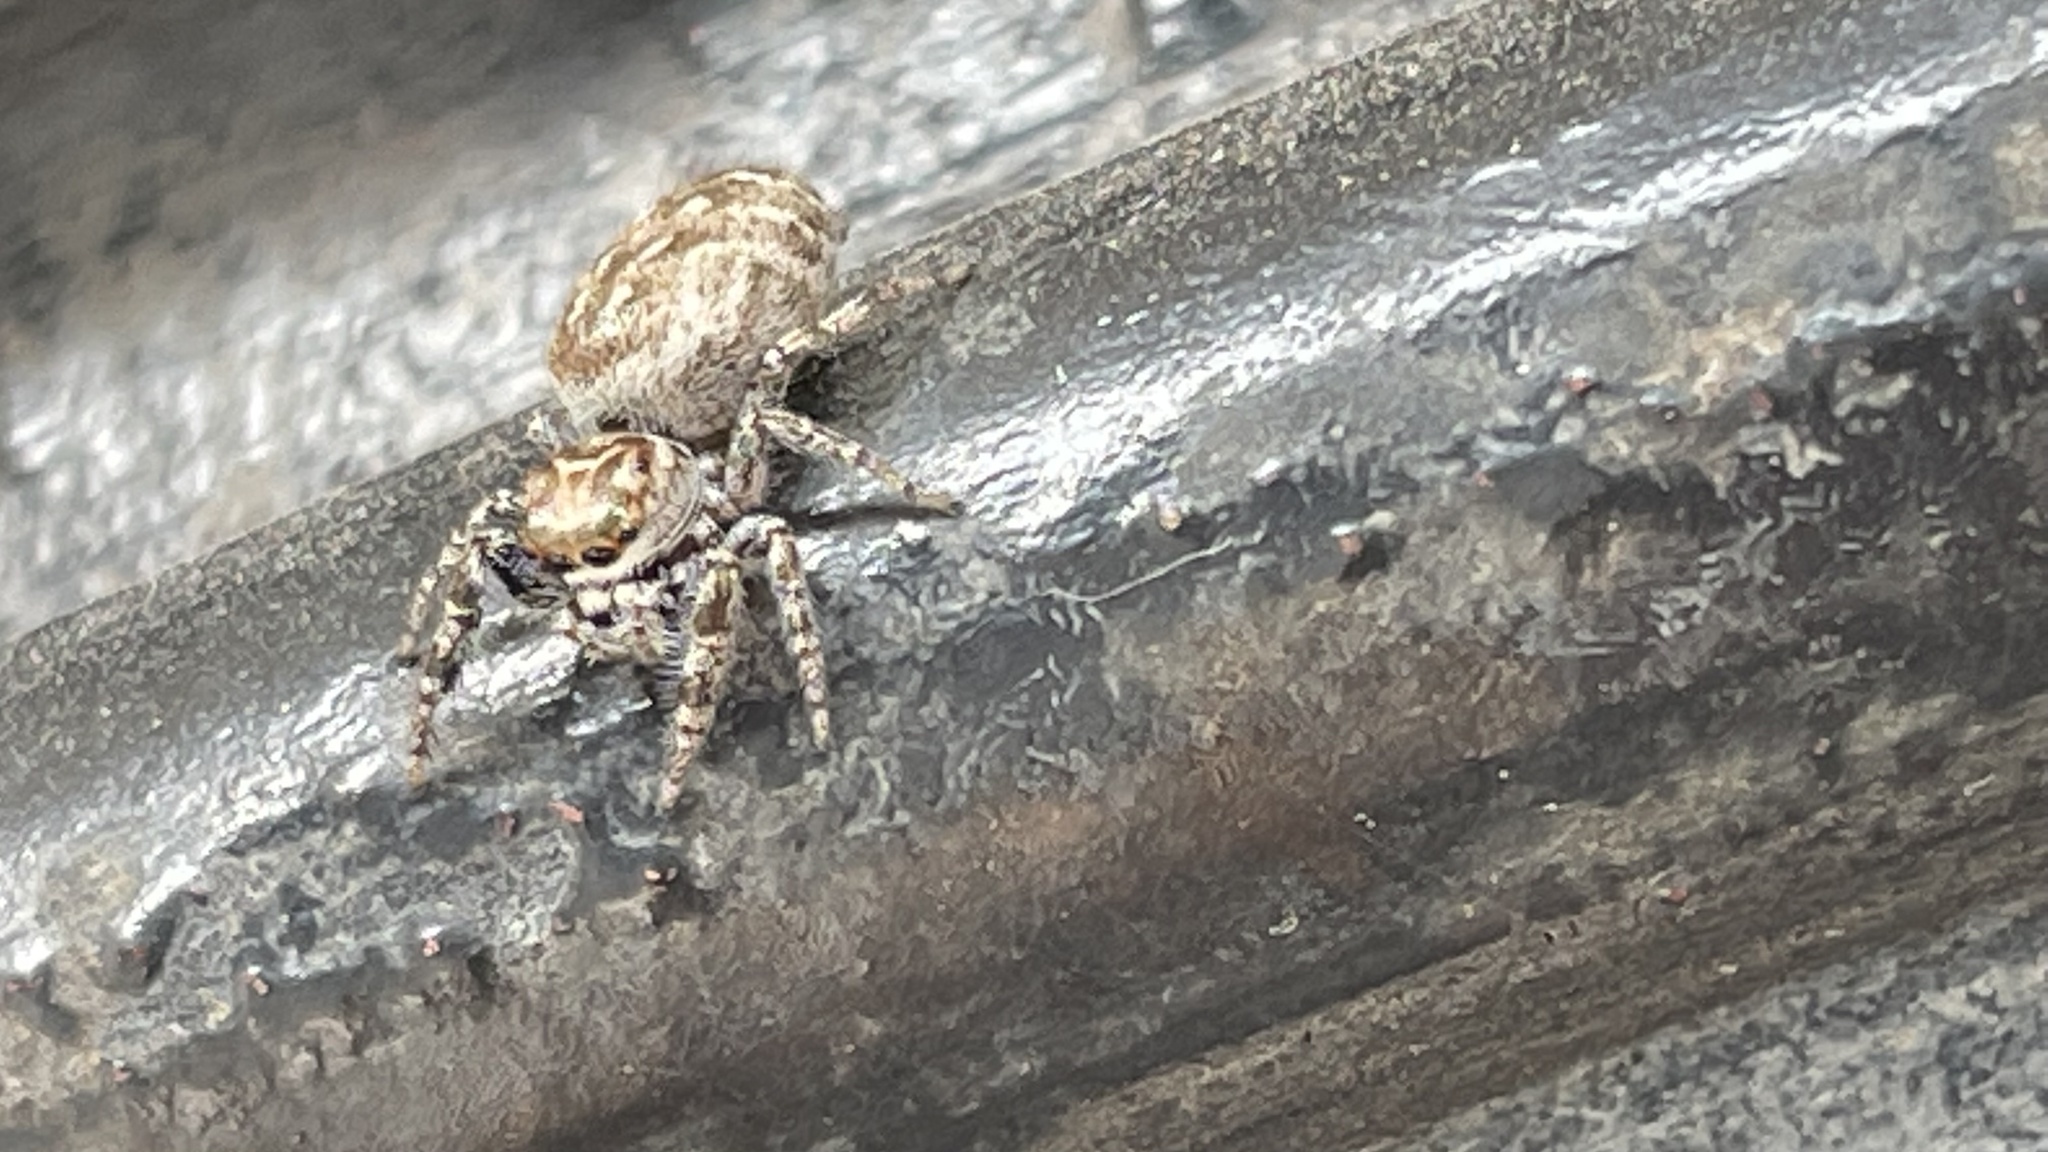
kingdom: Animalia
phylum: Arthropoda
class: Arachnida
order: Araneae
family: Salticidae
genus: Bagheera
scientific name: Bagheera prosper
